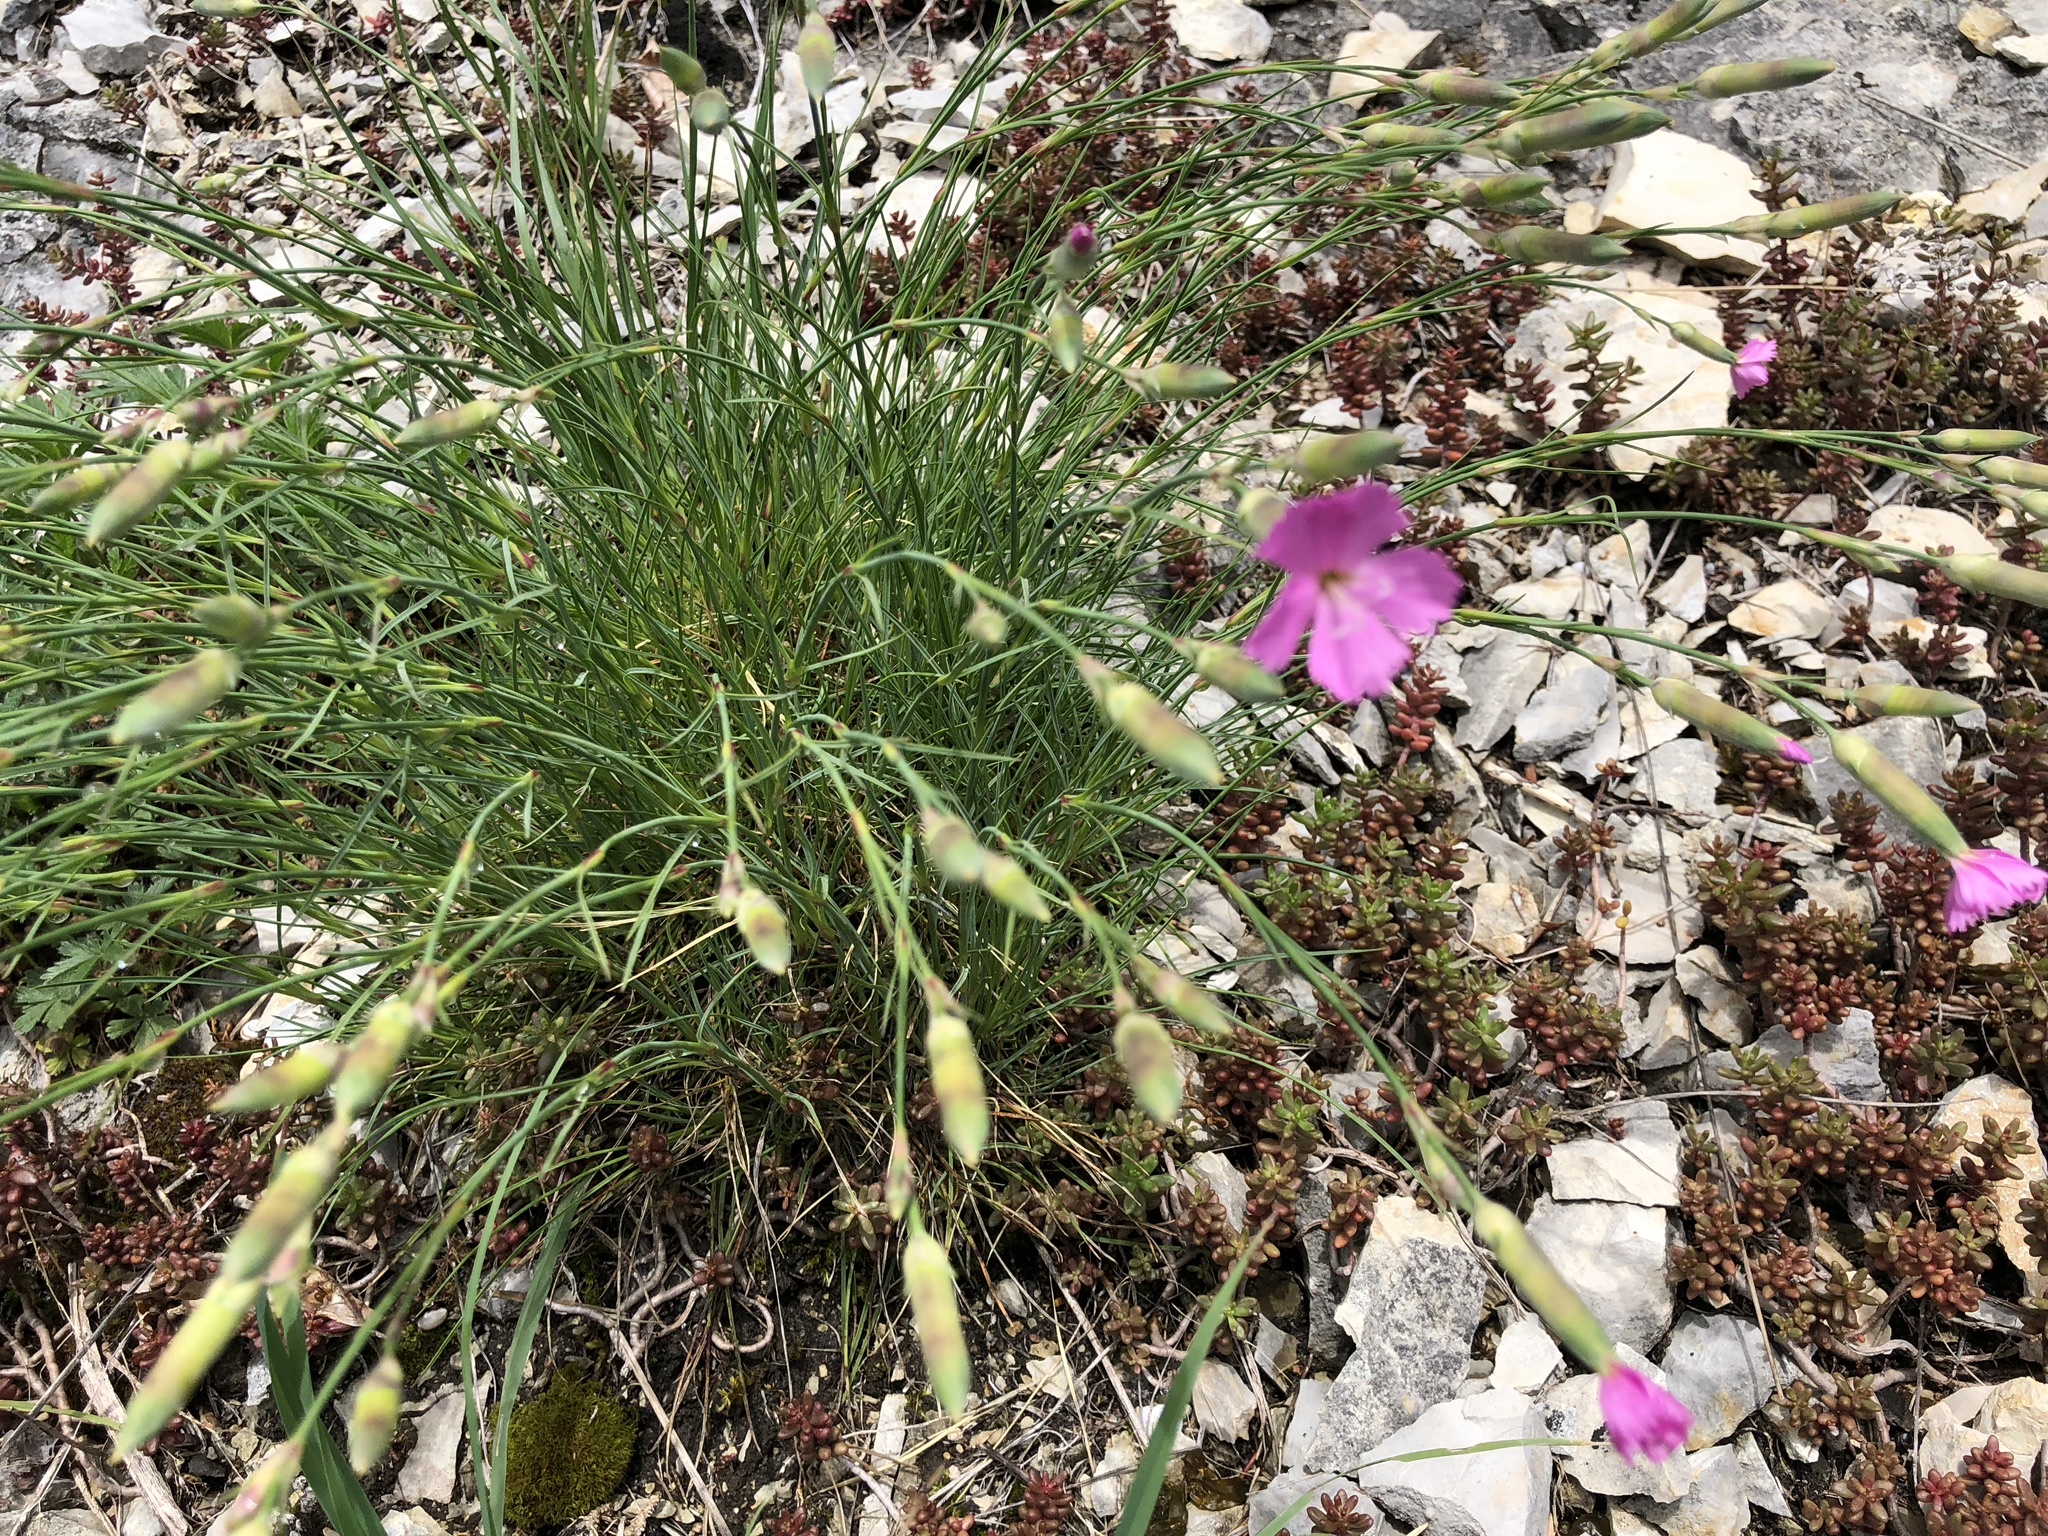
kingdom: Plantae
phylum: Tracheophyta
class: Magnoliopsida
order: Caryophyllales
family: Caryophyllaceae
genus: Dianthus
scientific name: Dianthus sylvestris
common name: Wood pink
